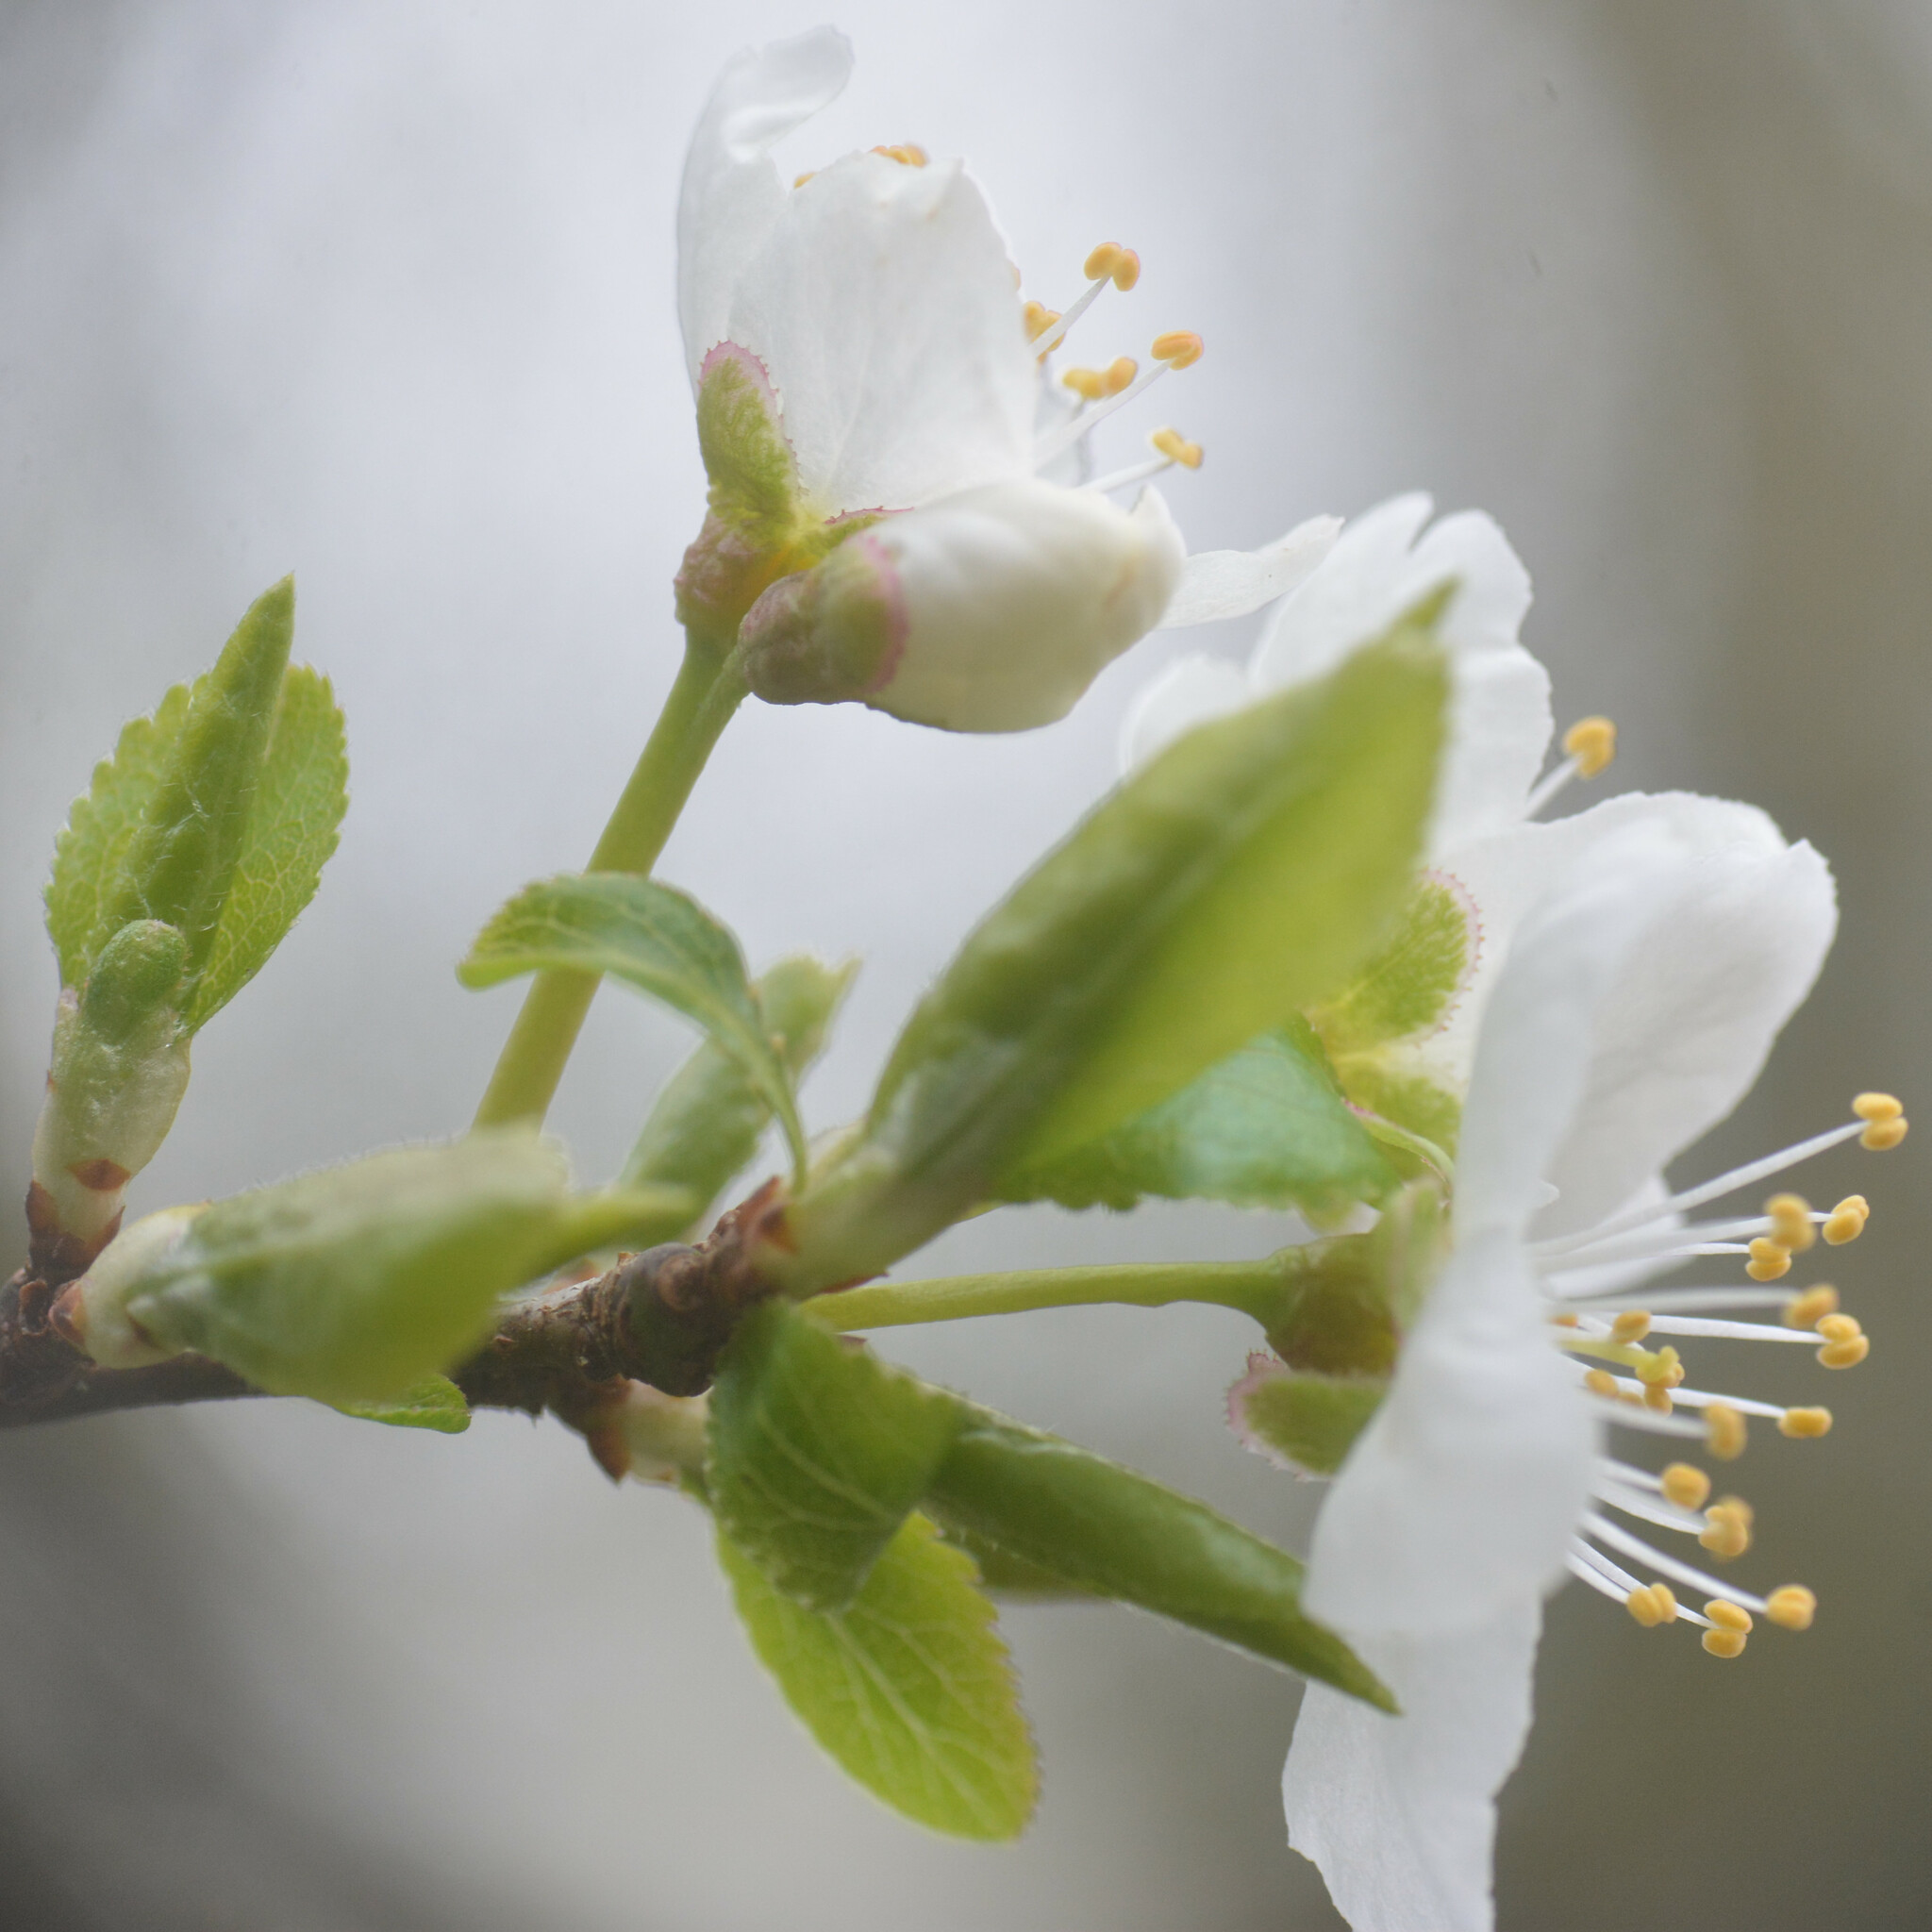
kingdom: Plantae
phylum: Tracheophyta
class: Magnoliopsida
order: Rosales
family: Rosaceae
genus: Prunus
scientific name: Prunus cerasifera
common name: Cherry plum
